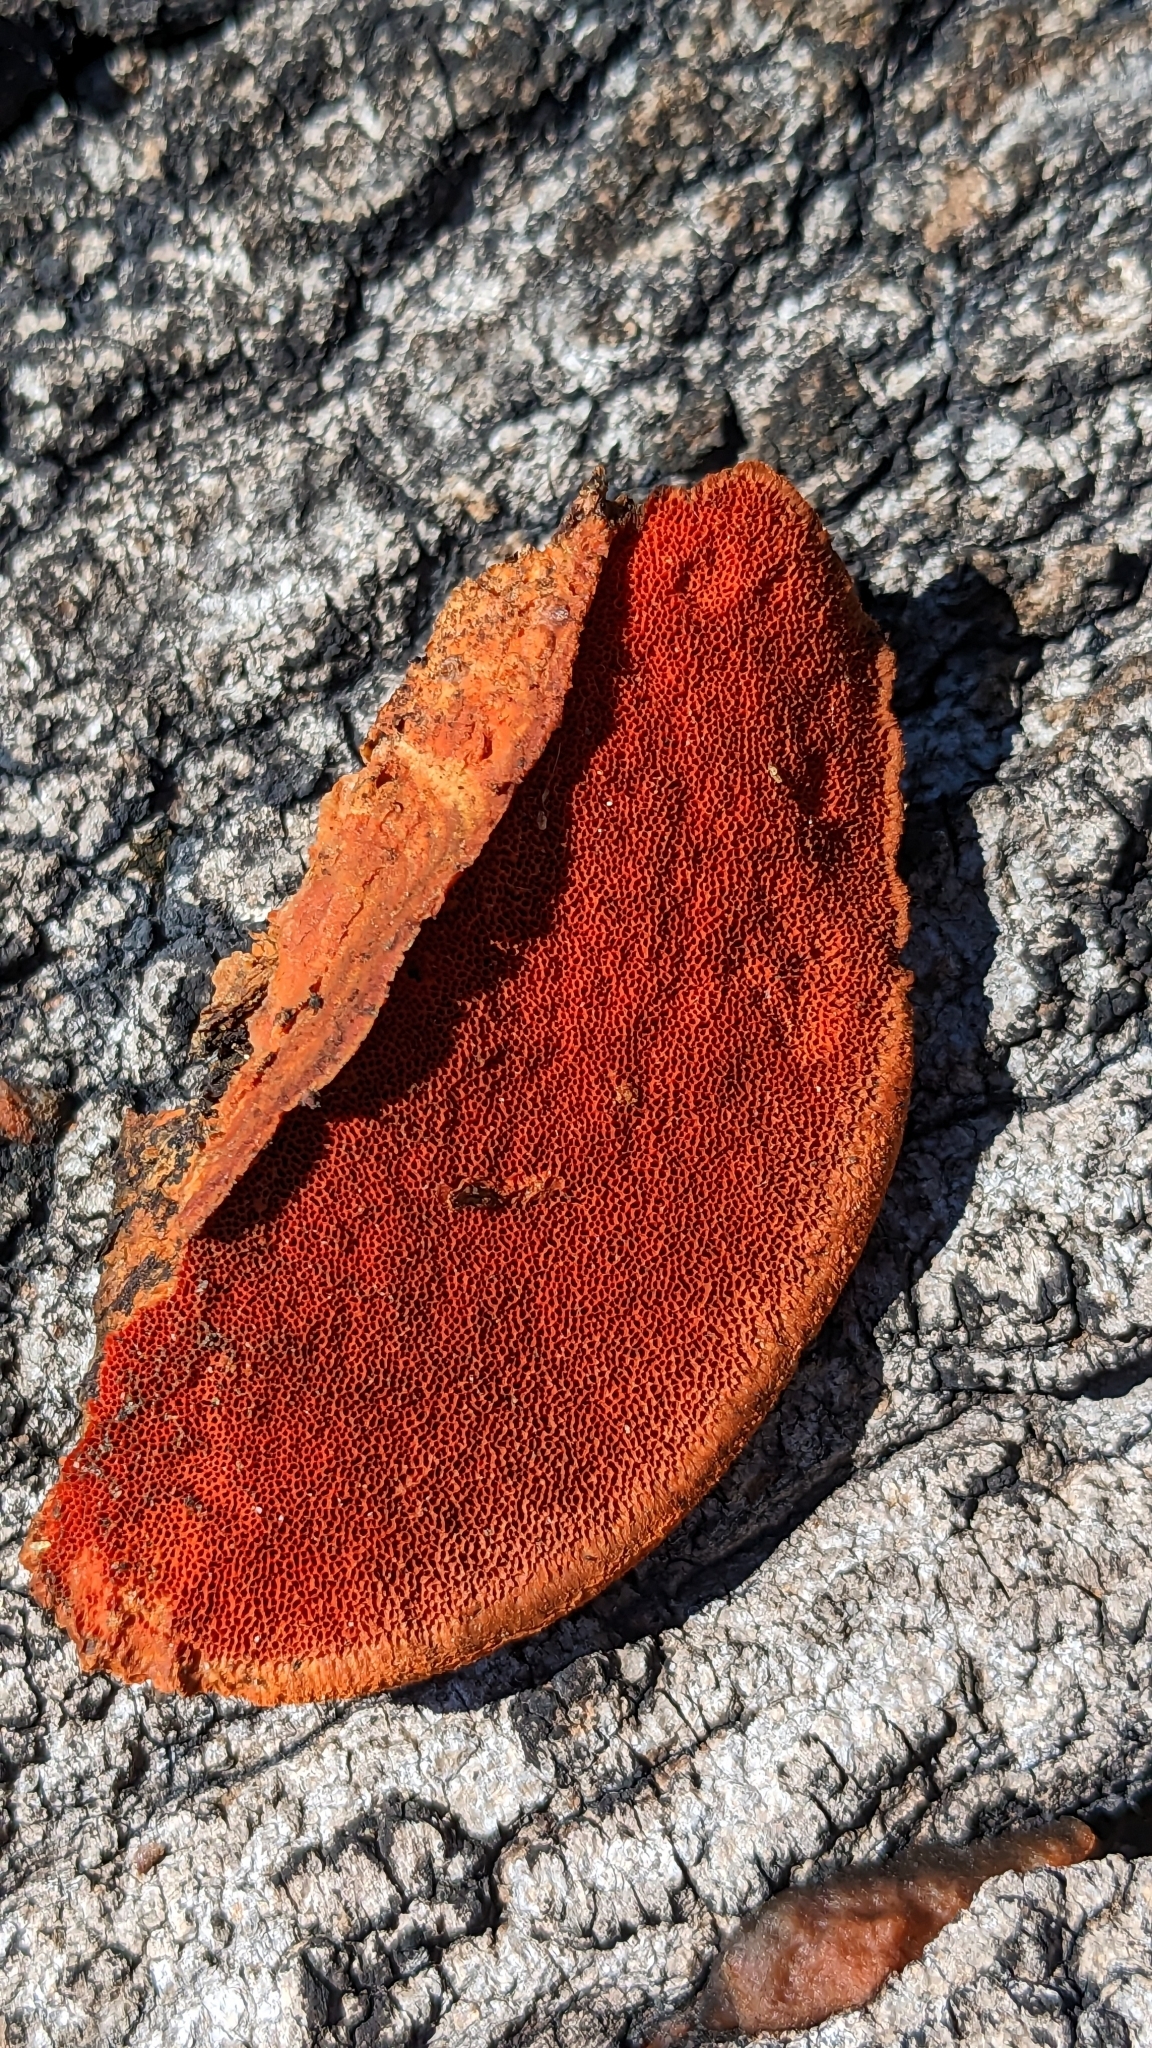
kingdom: Fungi
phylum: Basidiomycota
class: Agaricomycetes
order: Polyporales
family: Polyporaceae
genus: Trametes
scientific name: Trametes cinnabarina
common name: Northern cinnabar polypore
